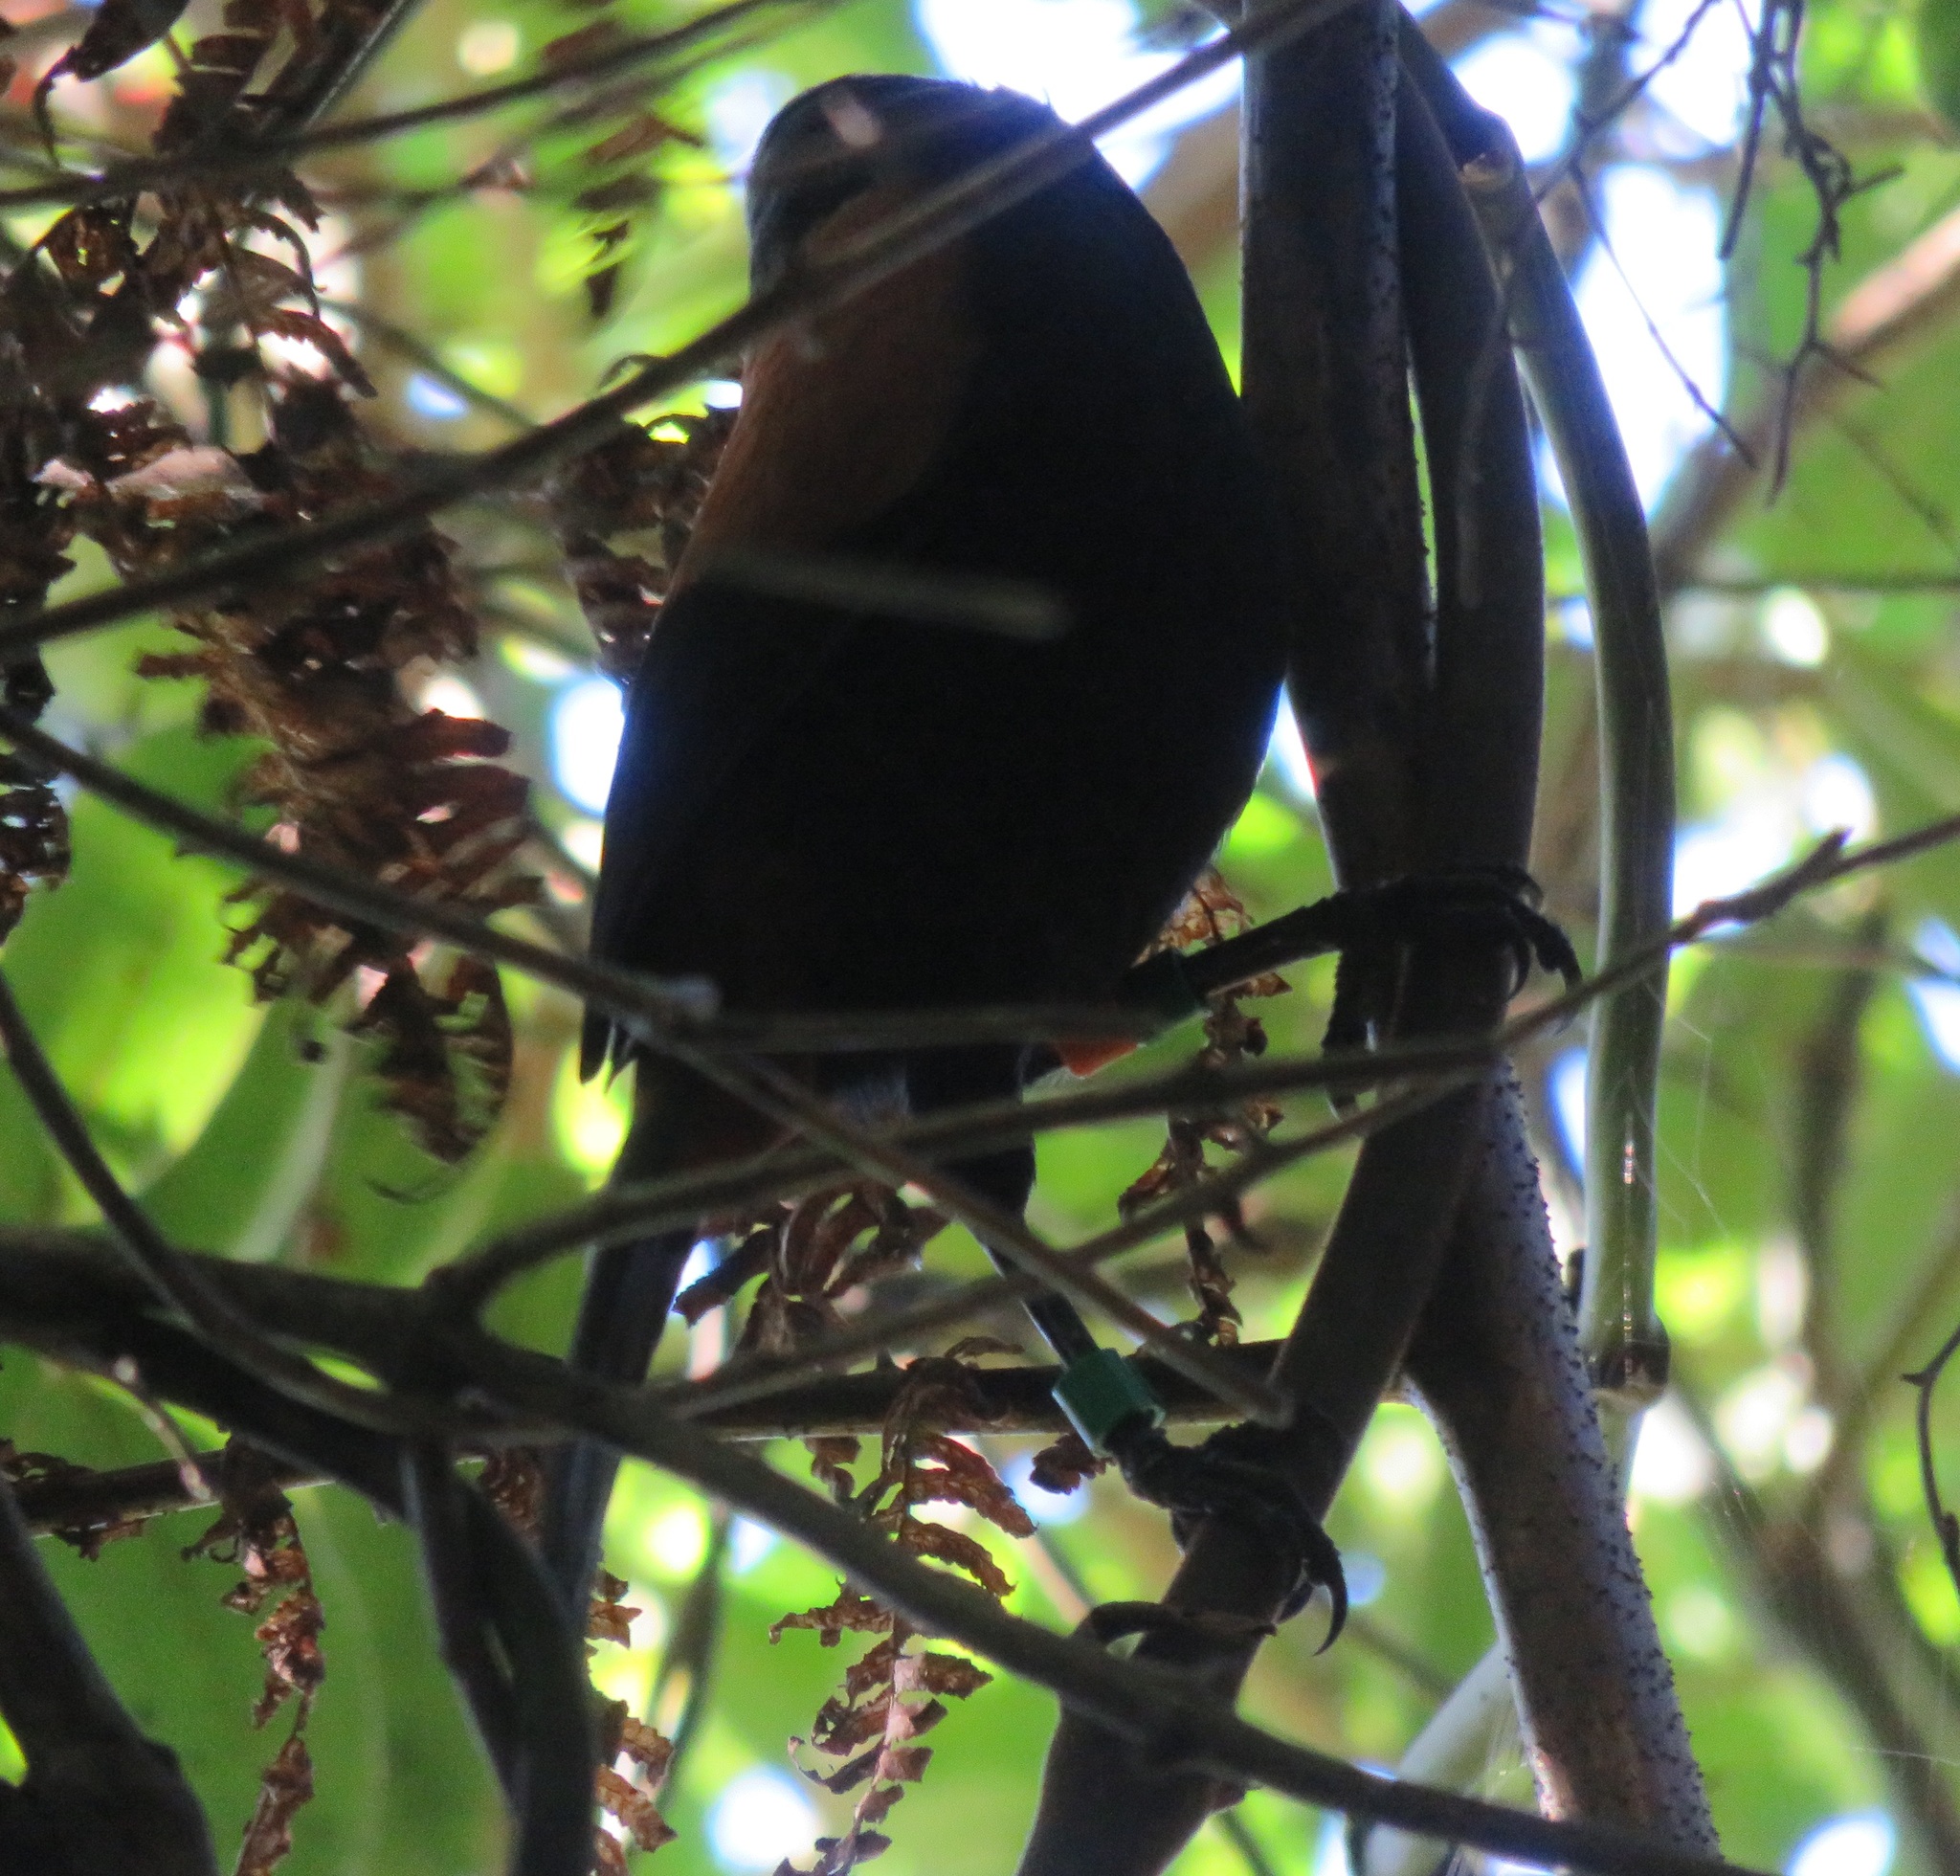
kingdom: Animalia
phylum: Chordata
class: Aves
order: Passeriformes
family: Callaeatidae
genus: Philesturnus
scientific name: Philesturnus carunculatus
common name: South island saddleback
